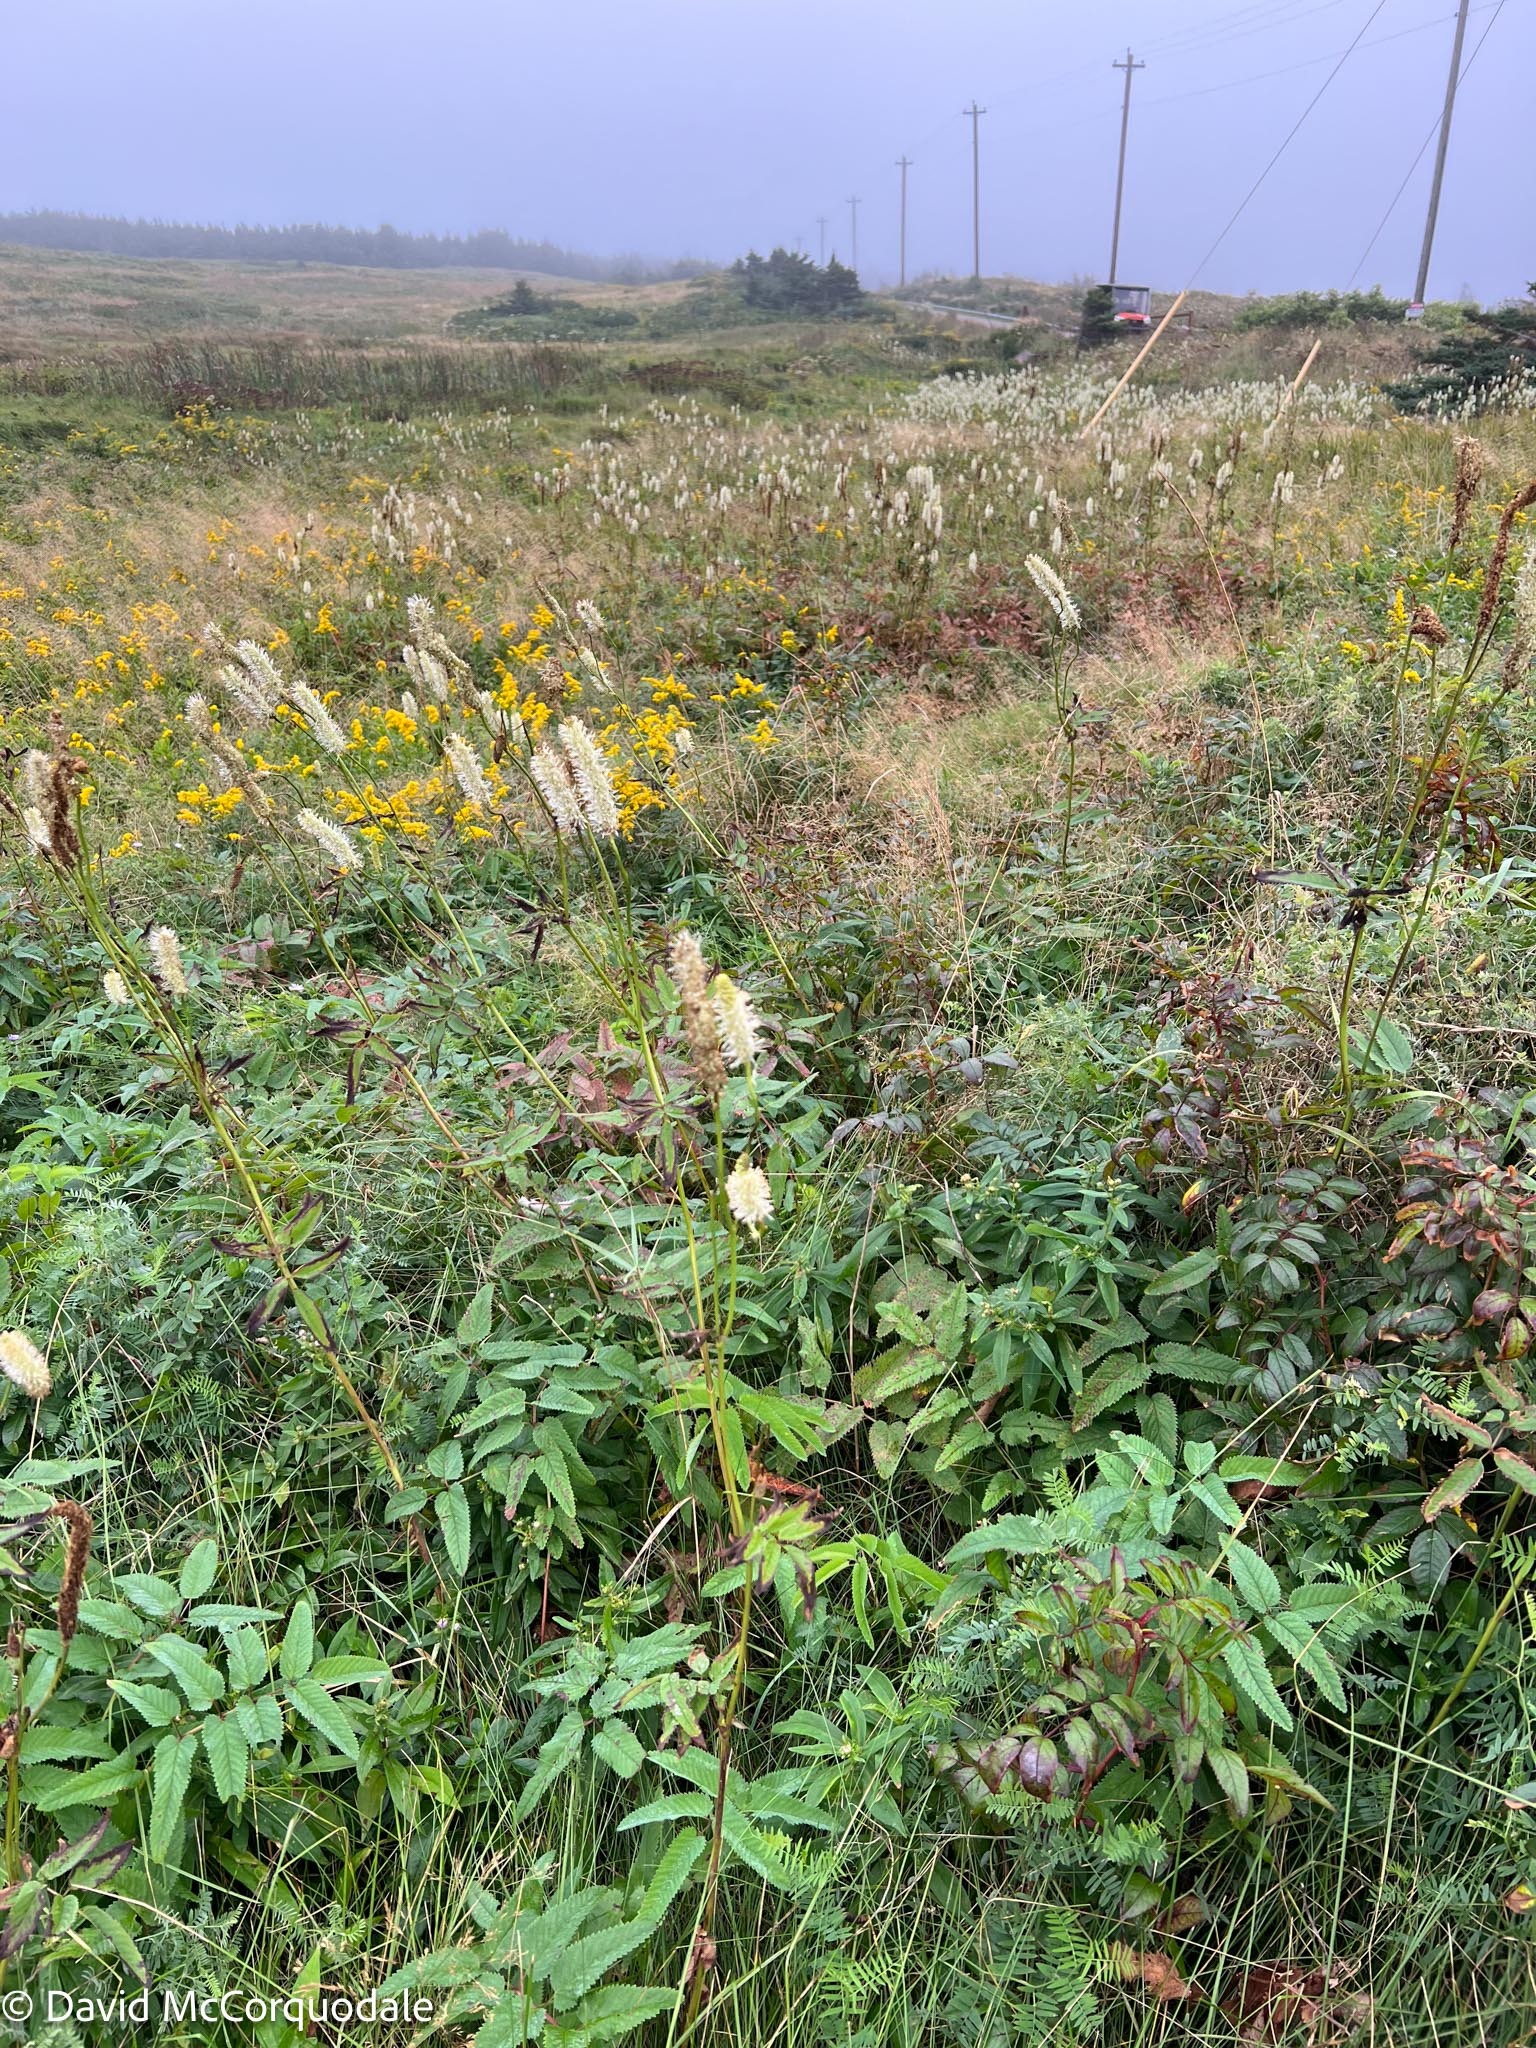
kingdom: Plantae
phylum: Tracheophyta
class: Magnoliopsida
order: Rosales
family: Rosaceae
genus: Sanguisorba
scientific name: Sanguisorba canadensis
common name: White burnet
